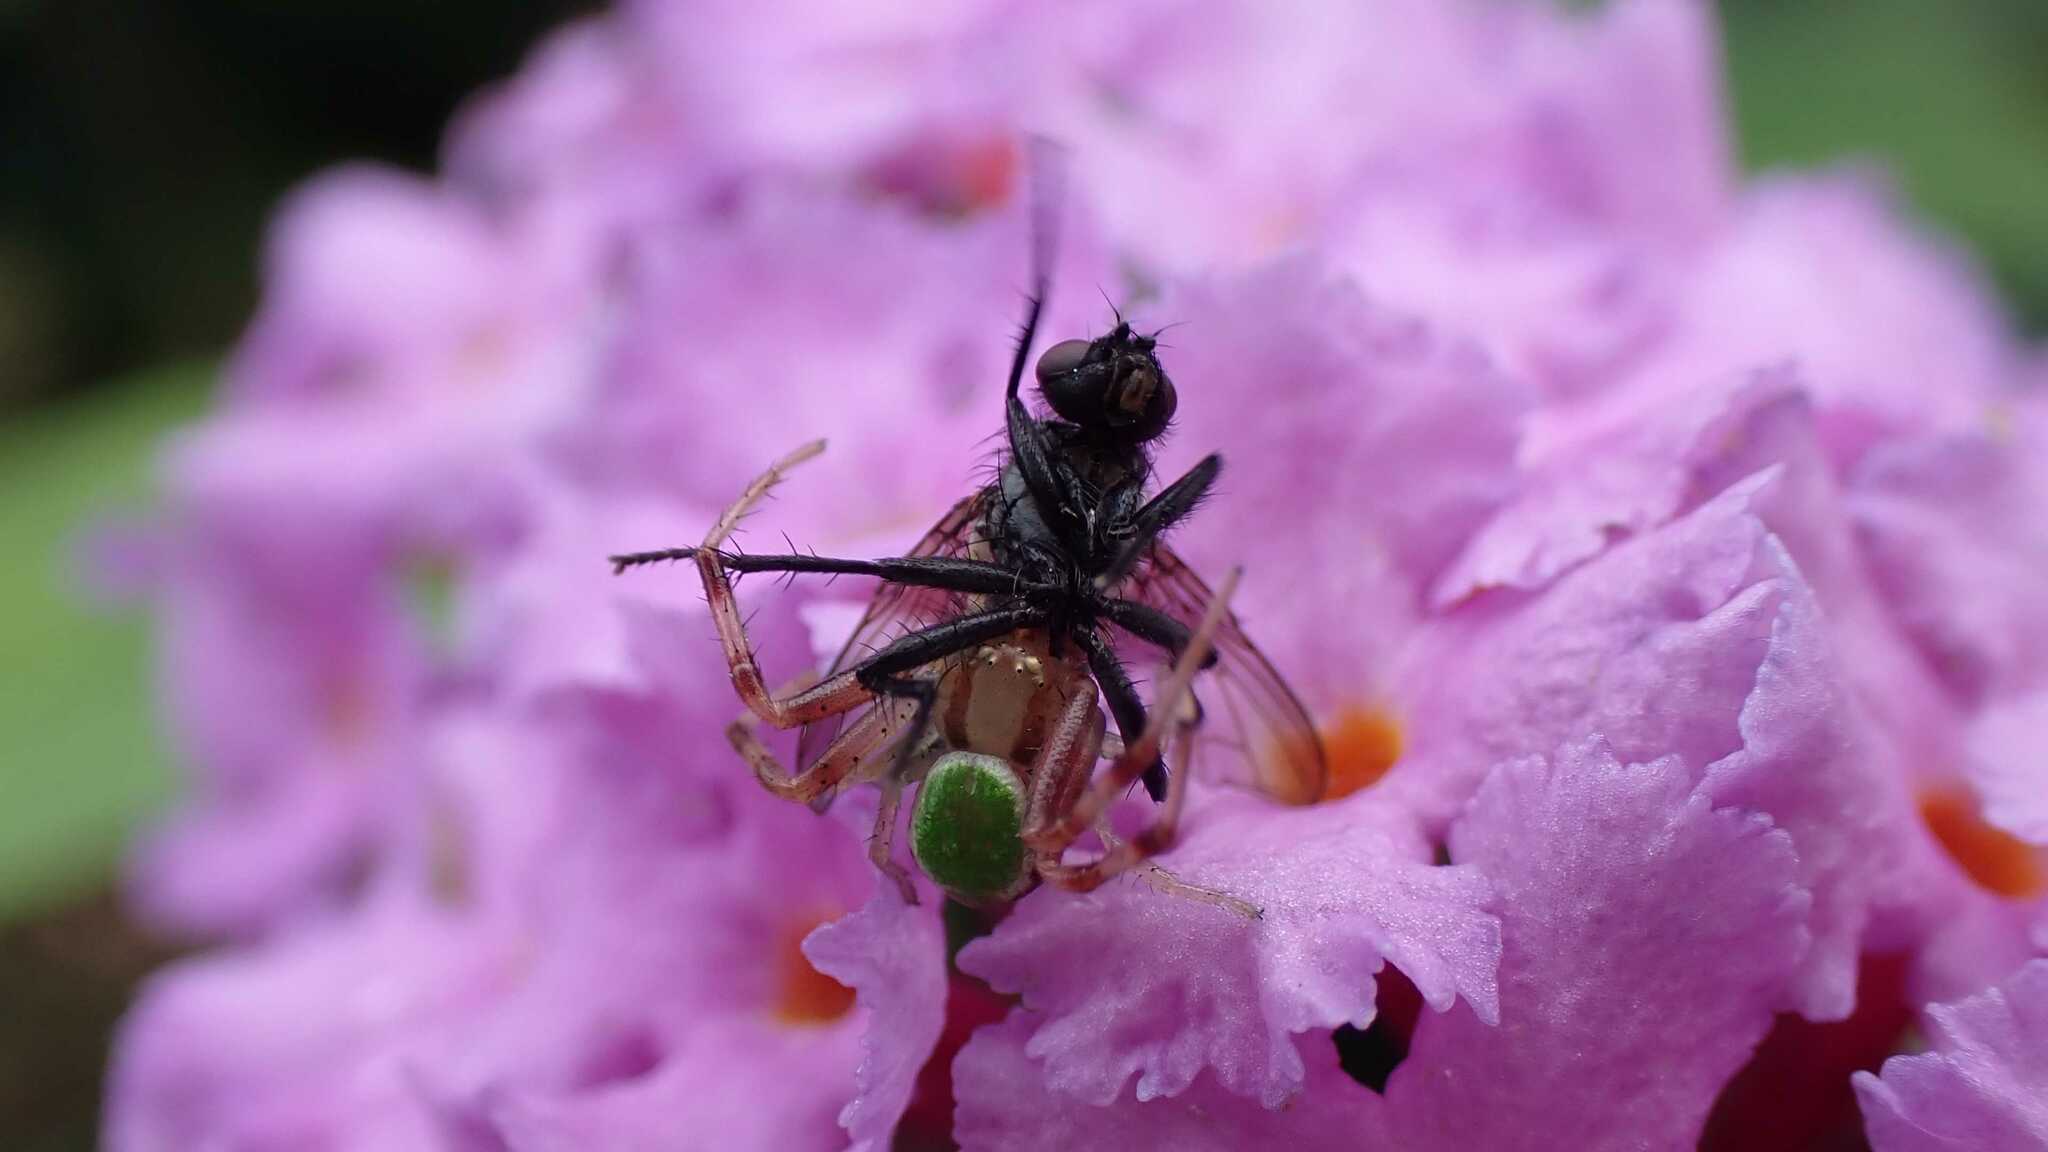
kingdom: Animalia
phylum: Arthropoda
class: Arachnida
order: Araneae
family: Thomisidae
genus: Ebrechtella
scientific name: Ebrechtella tricuspidata
